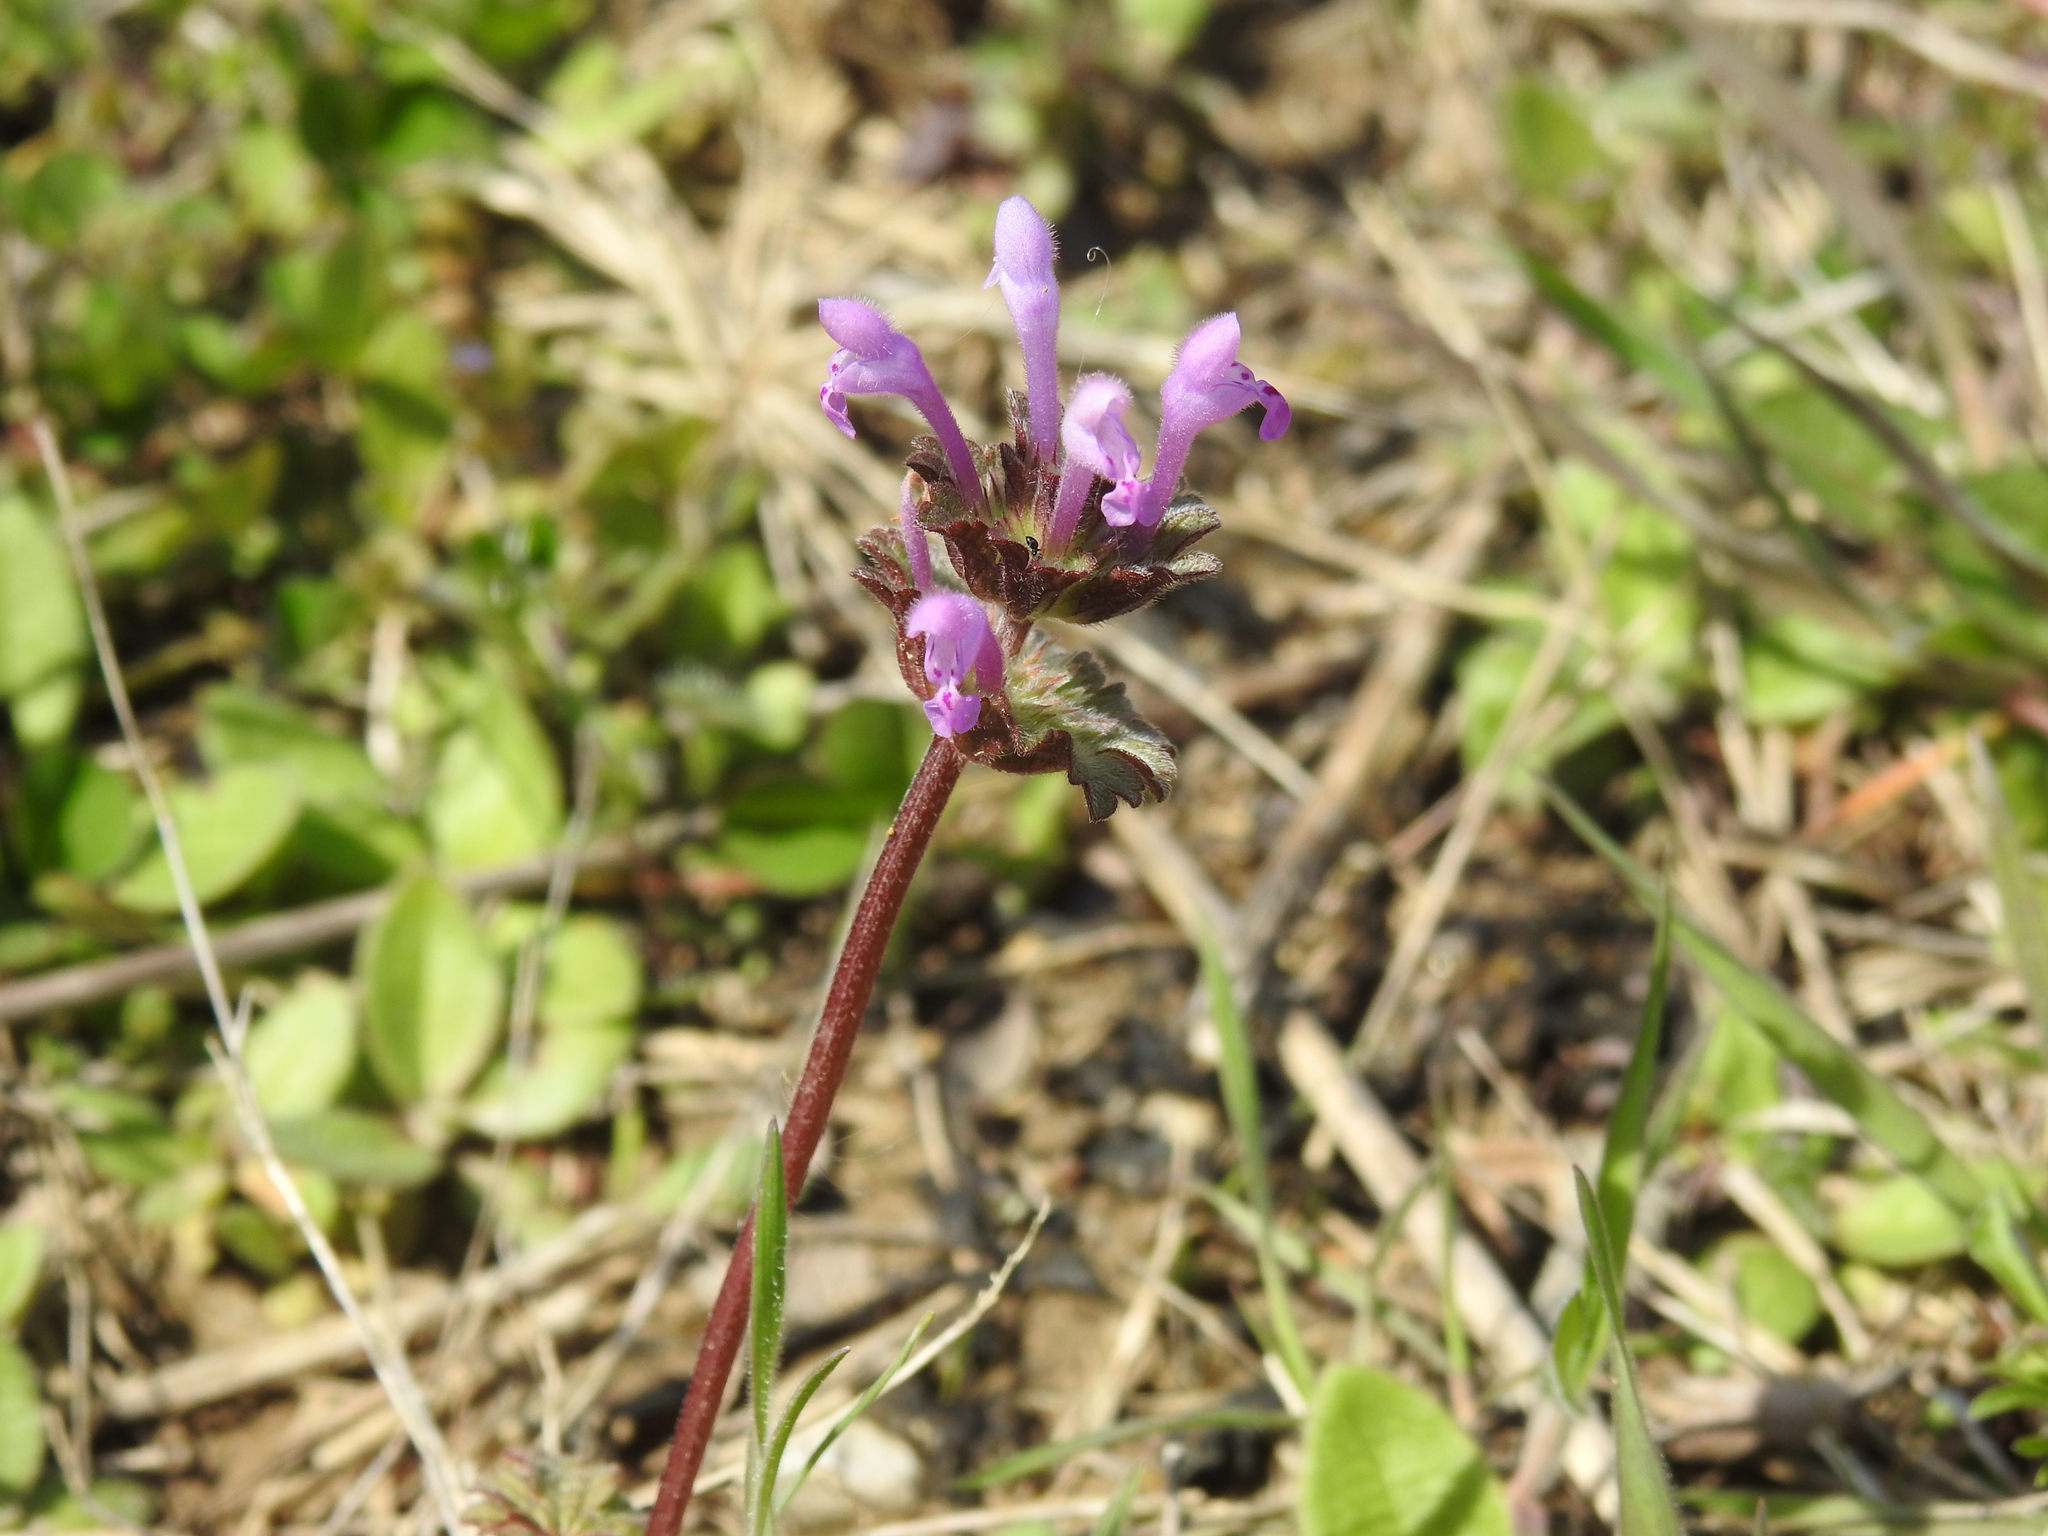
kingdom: Plantae
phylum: Tracheophyta
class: Magnoliopsida
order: Lamiales
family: Lamiaceae
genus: Lamium
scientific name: Lamium amplexicaule
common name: Henbit dead-nettle
